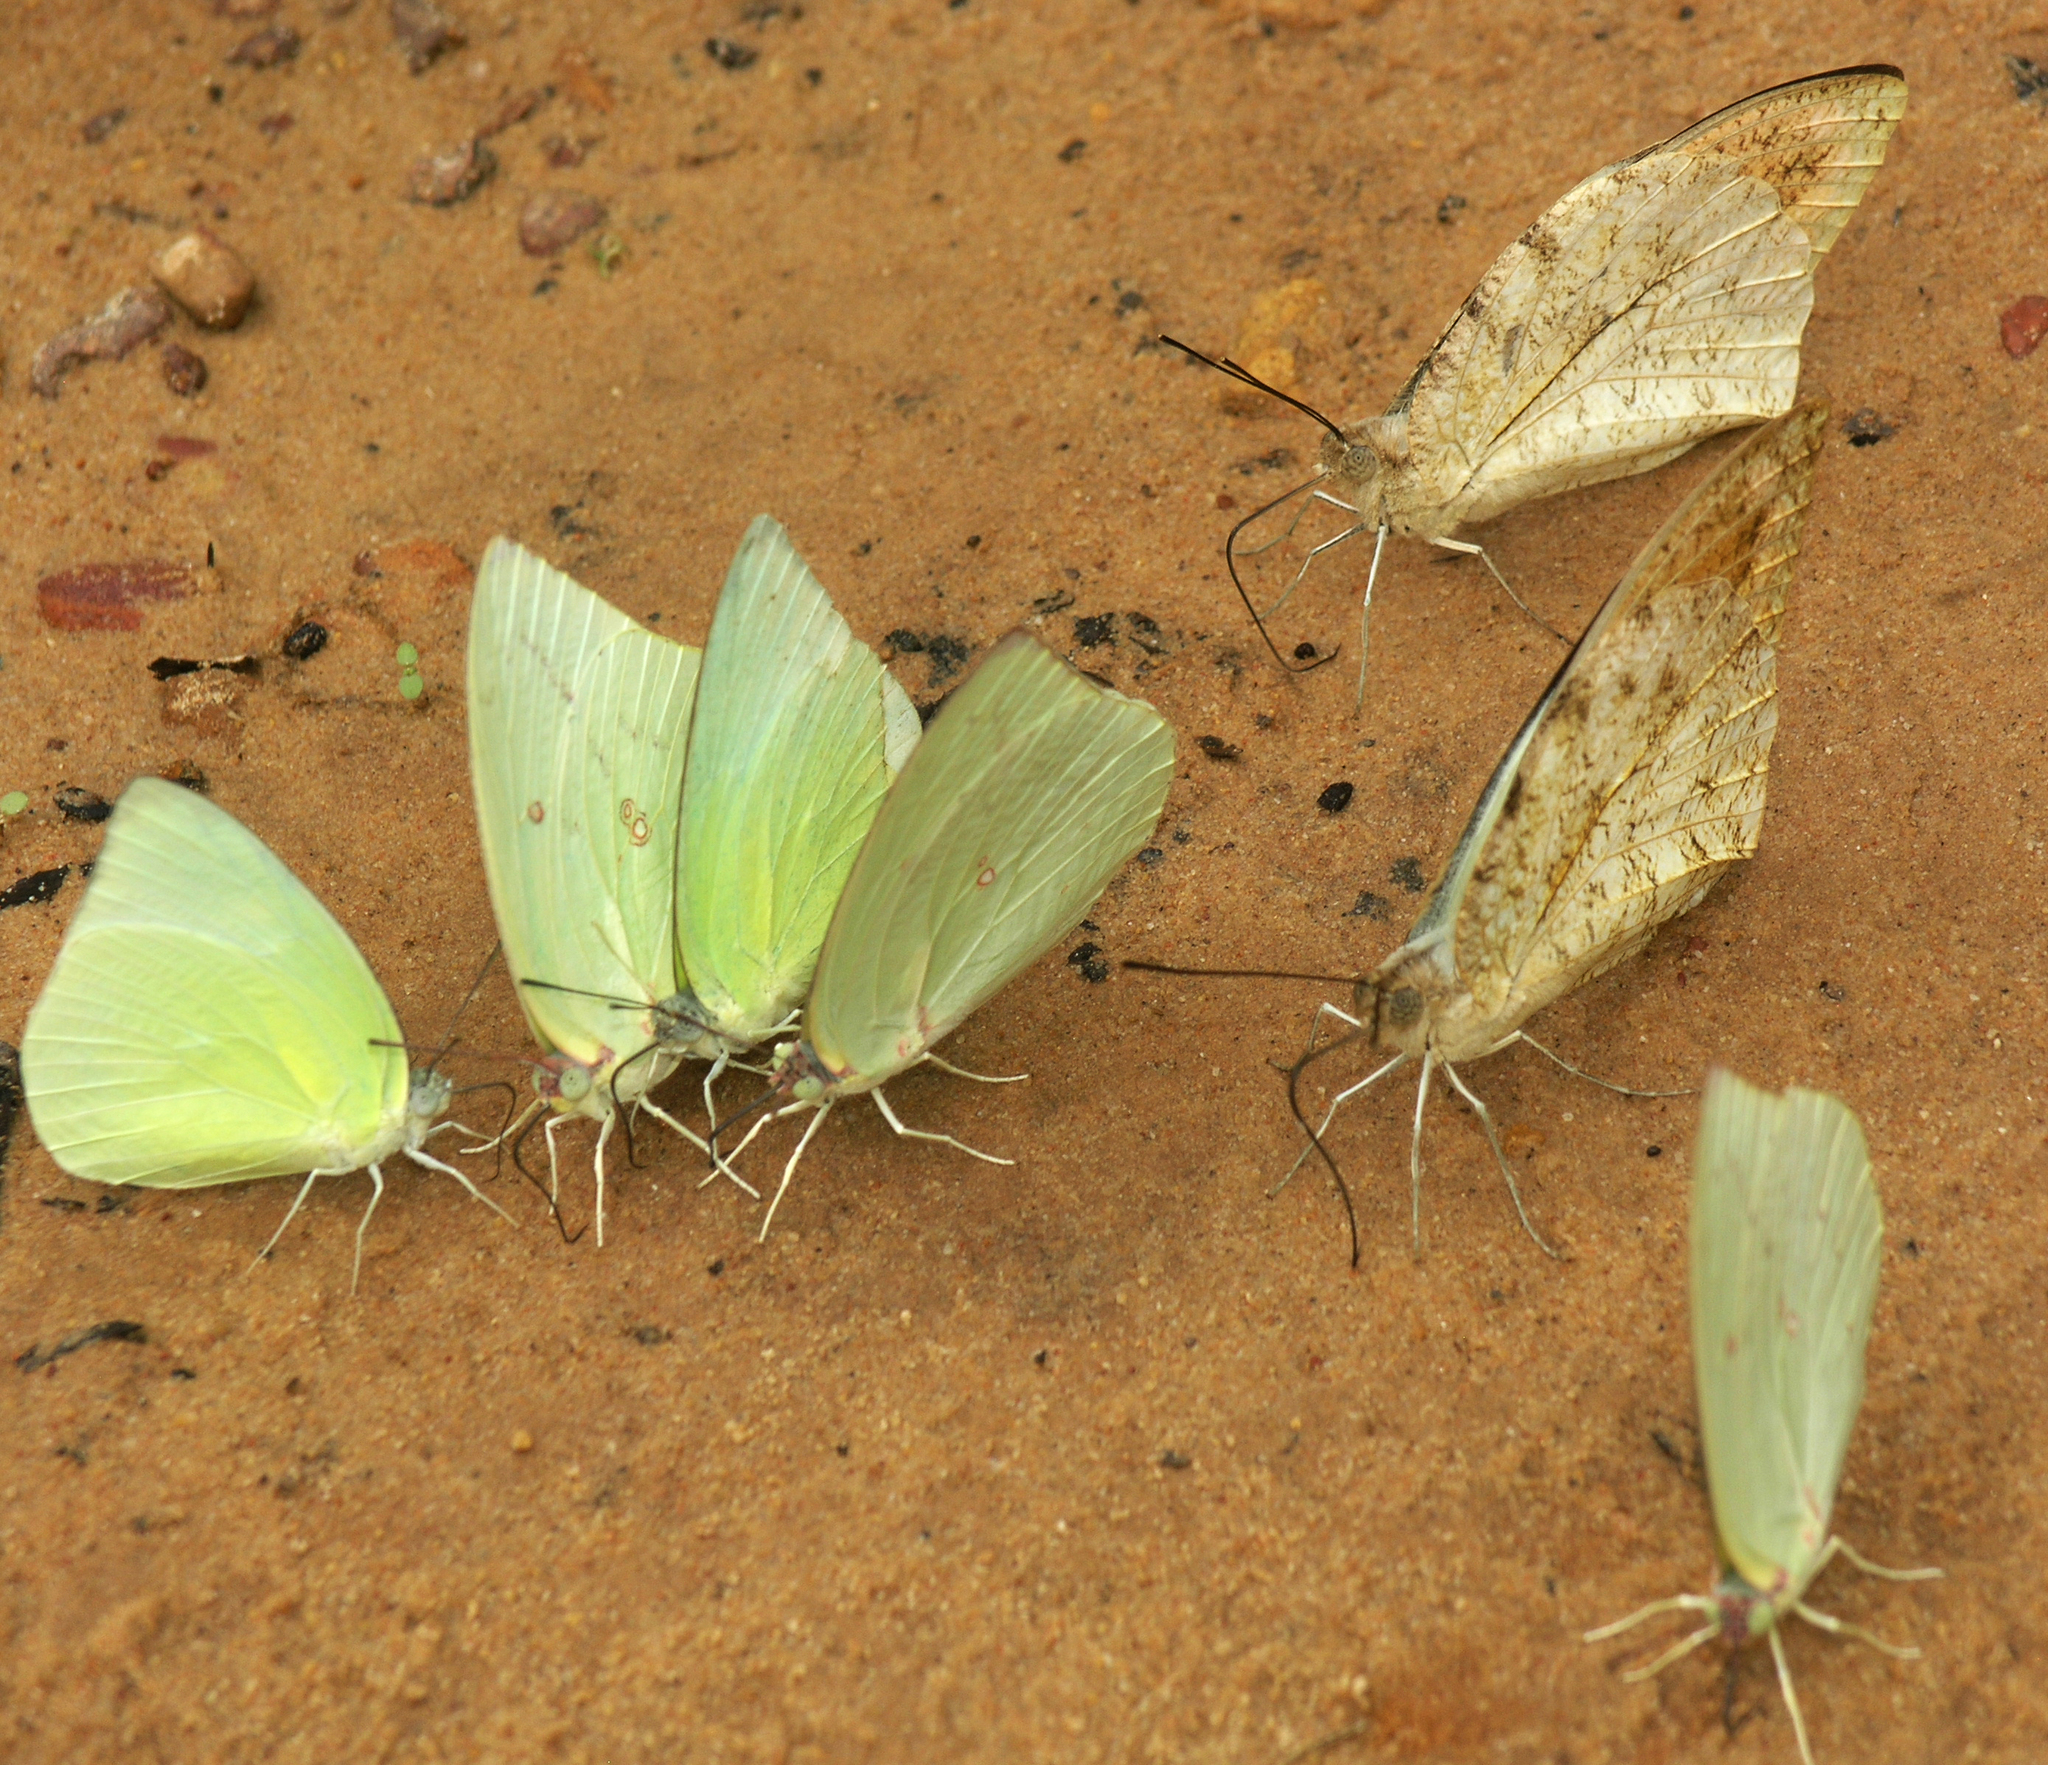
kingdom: Animalia
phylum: Arthropoda
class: Insecta
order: Lepidoptera
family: Pieridae
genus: Catopsilia
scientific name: Catopsilia pomona
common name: Common emigrant
